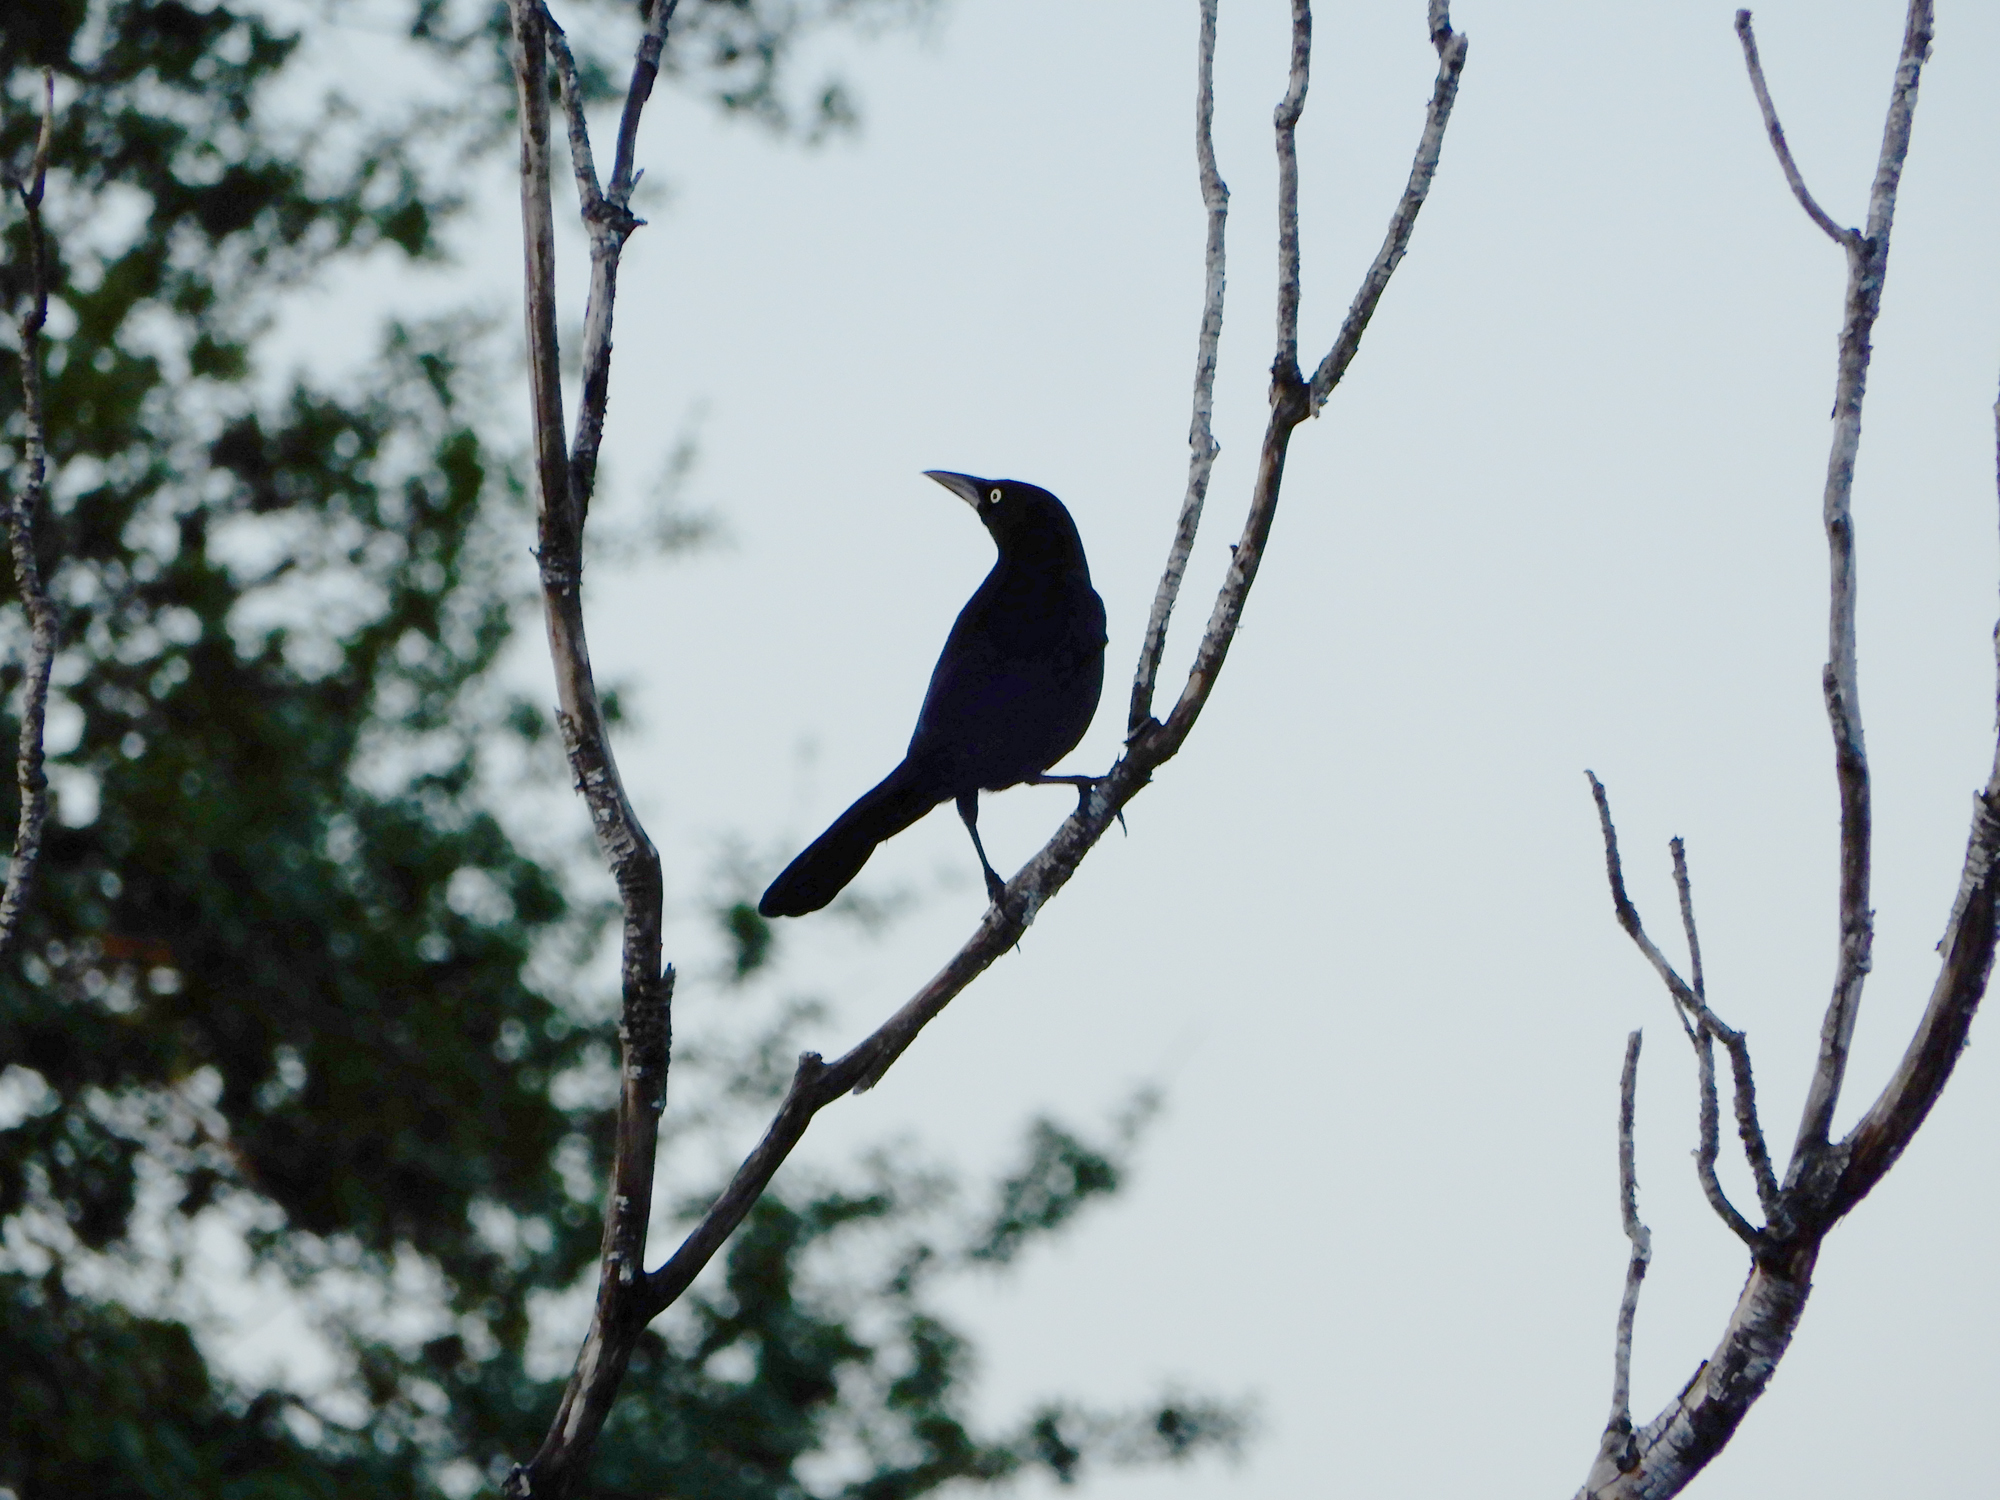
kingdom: Animalia
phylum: Chordata
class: Aves
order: Passeriformes
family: Icteridae
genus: Quiscalus
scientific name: Quiscalus quiscula
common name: Common grackle
